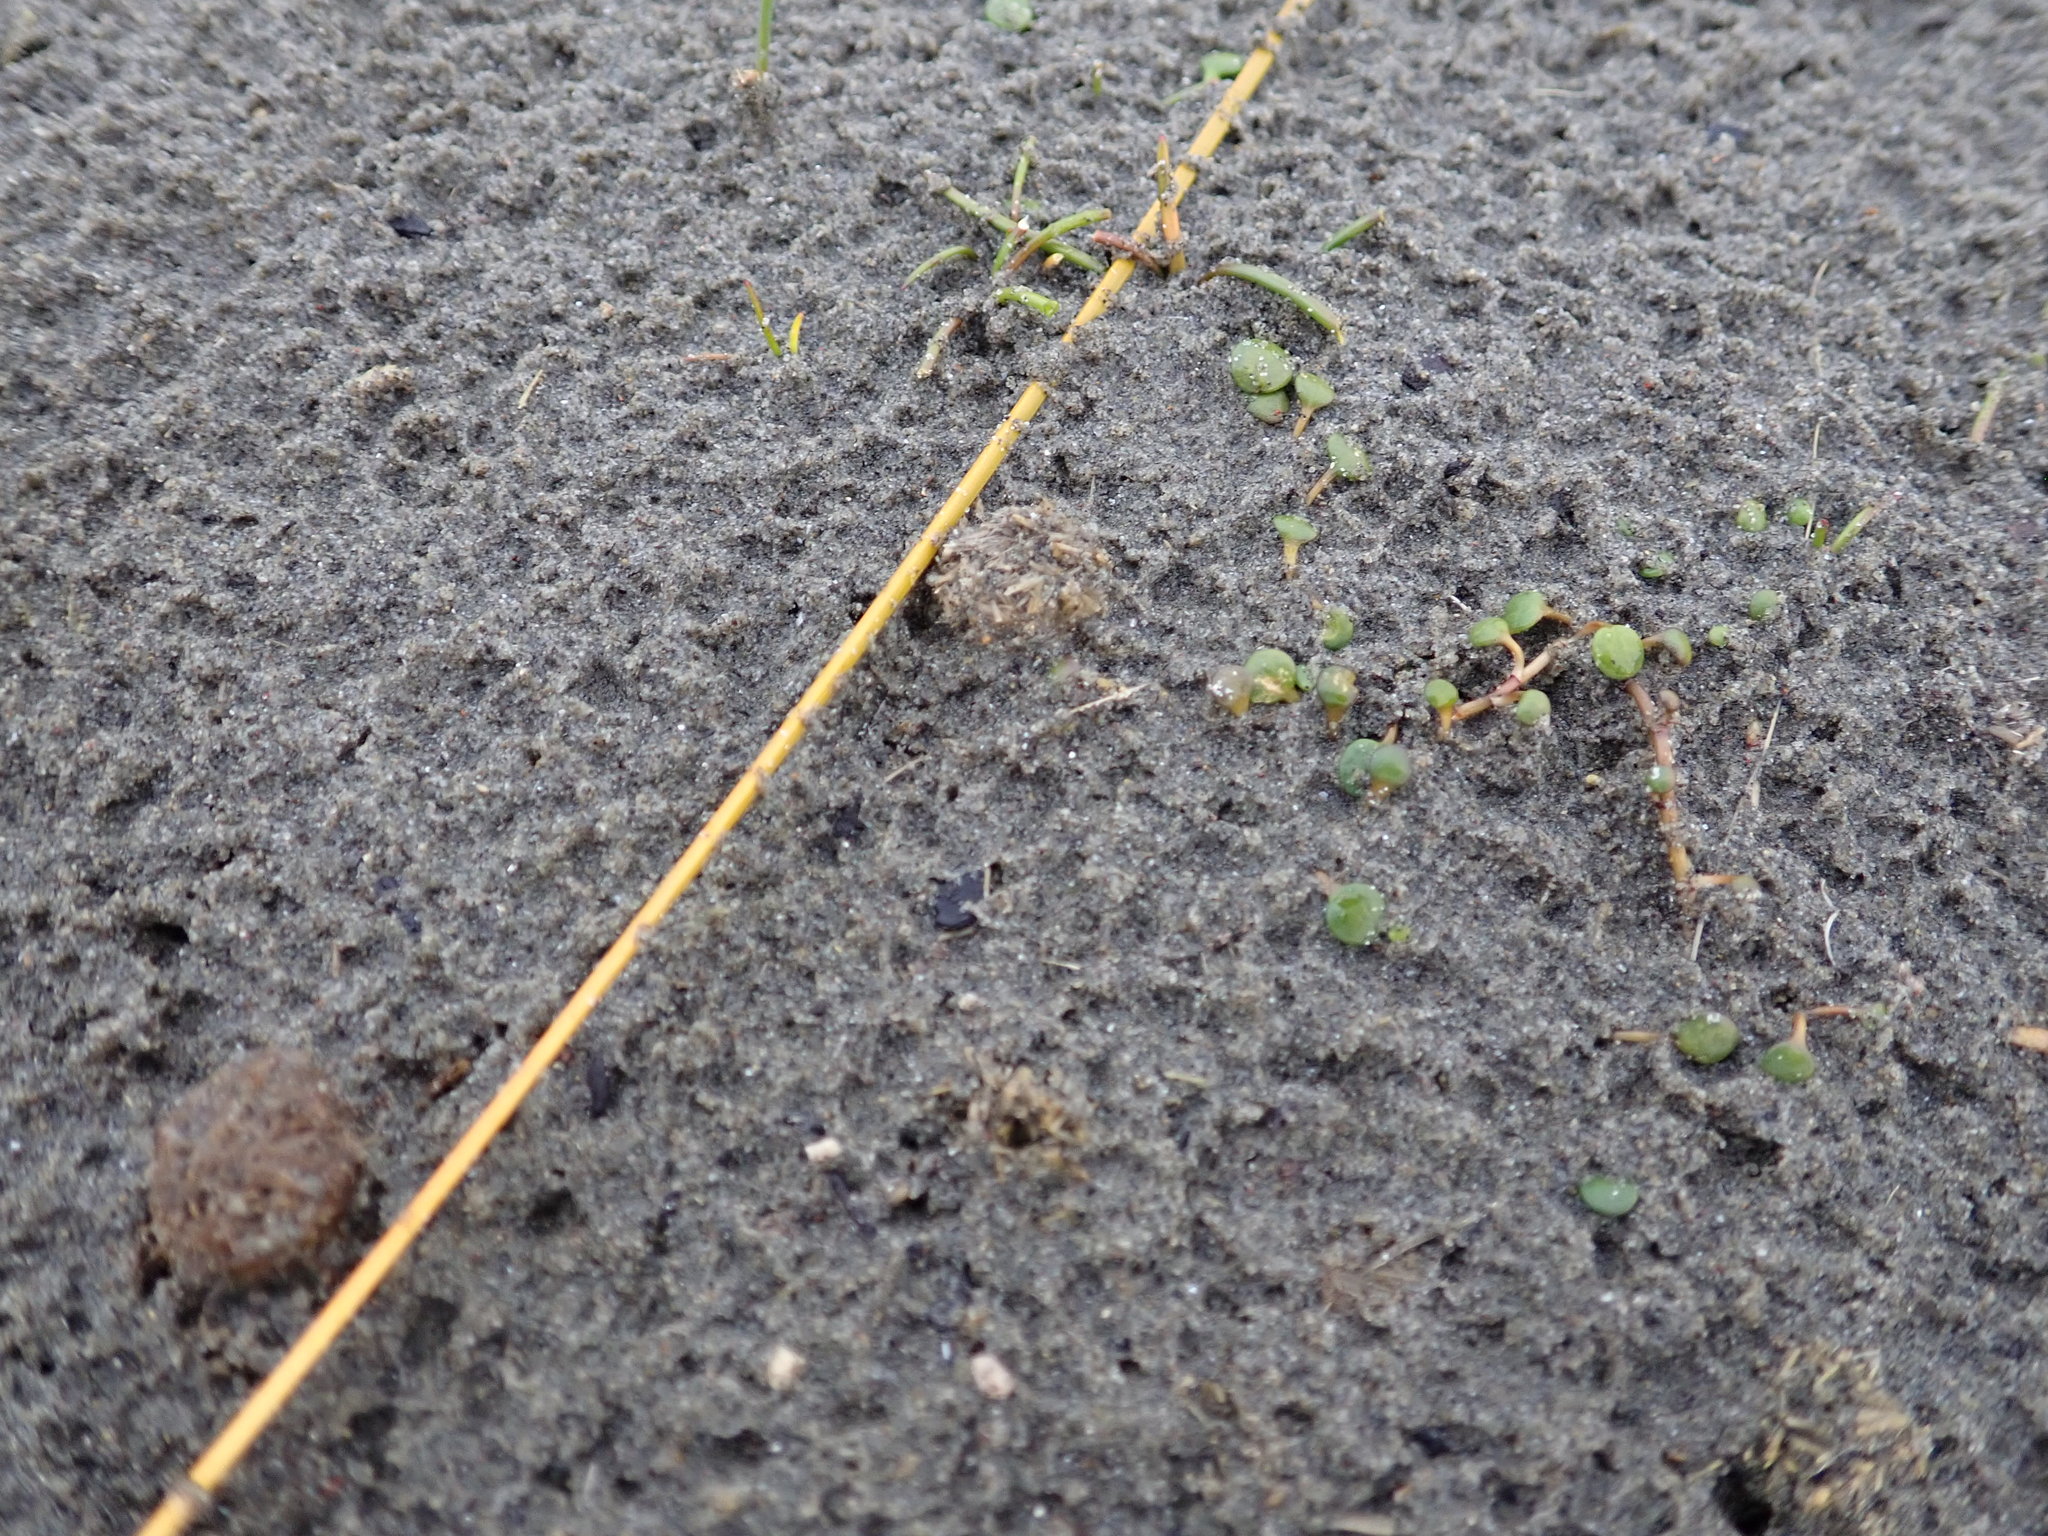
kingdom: Plantae
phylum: Tracheophyta
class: Magnoliopsida
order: Asterales
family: Goodeniaceae
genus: Goodenia
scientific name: Goodenia heenanii
